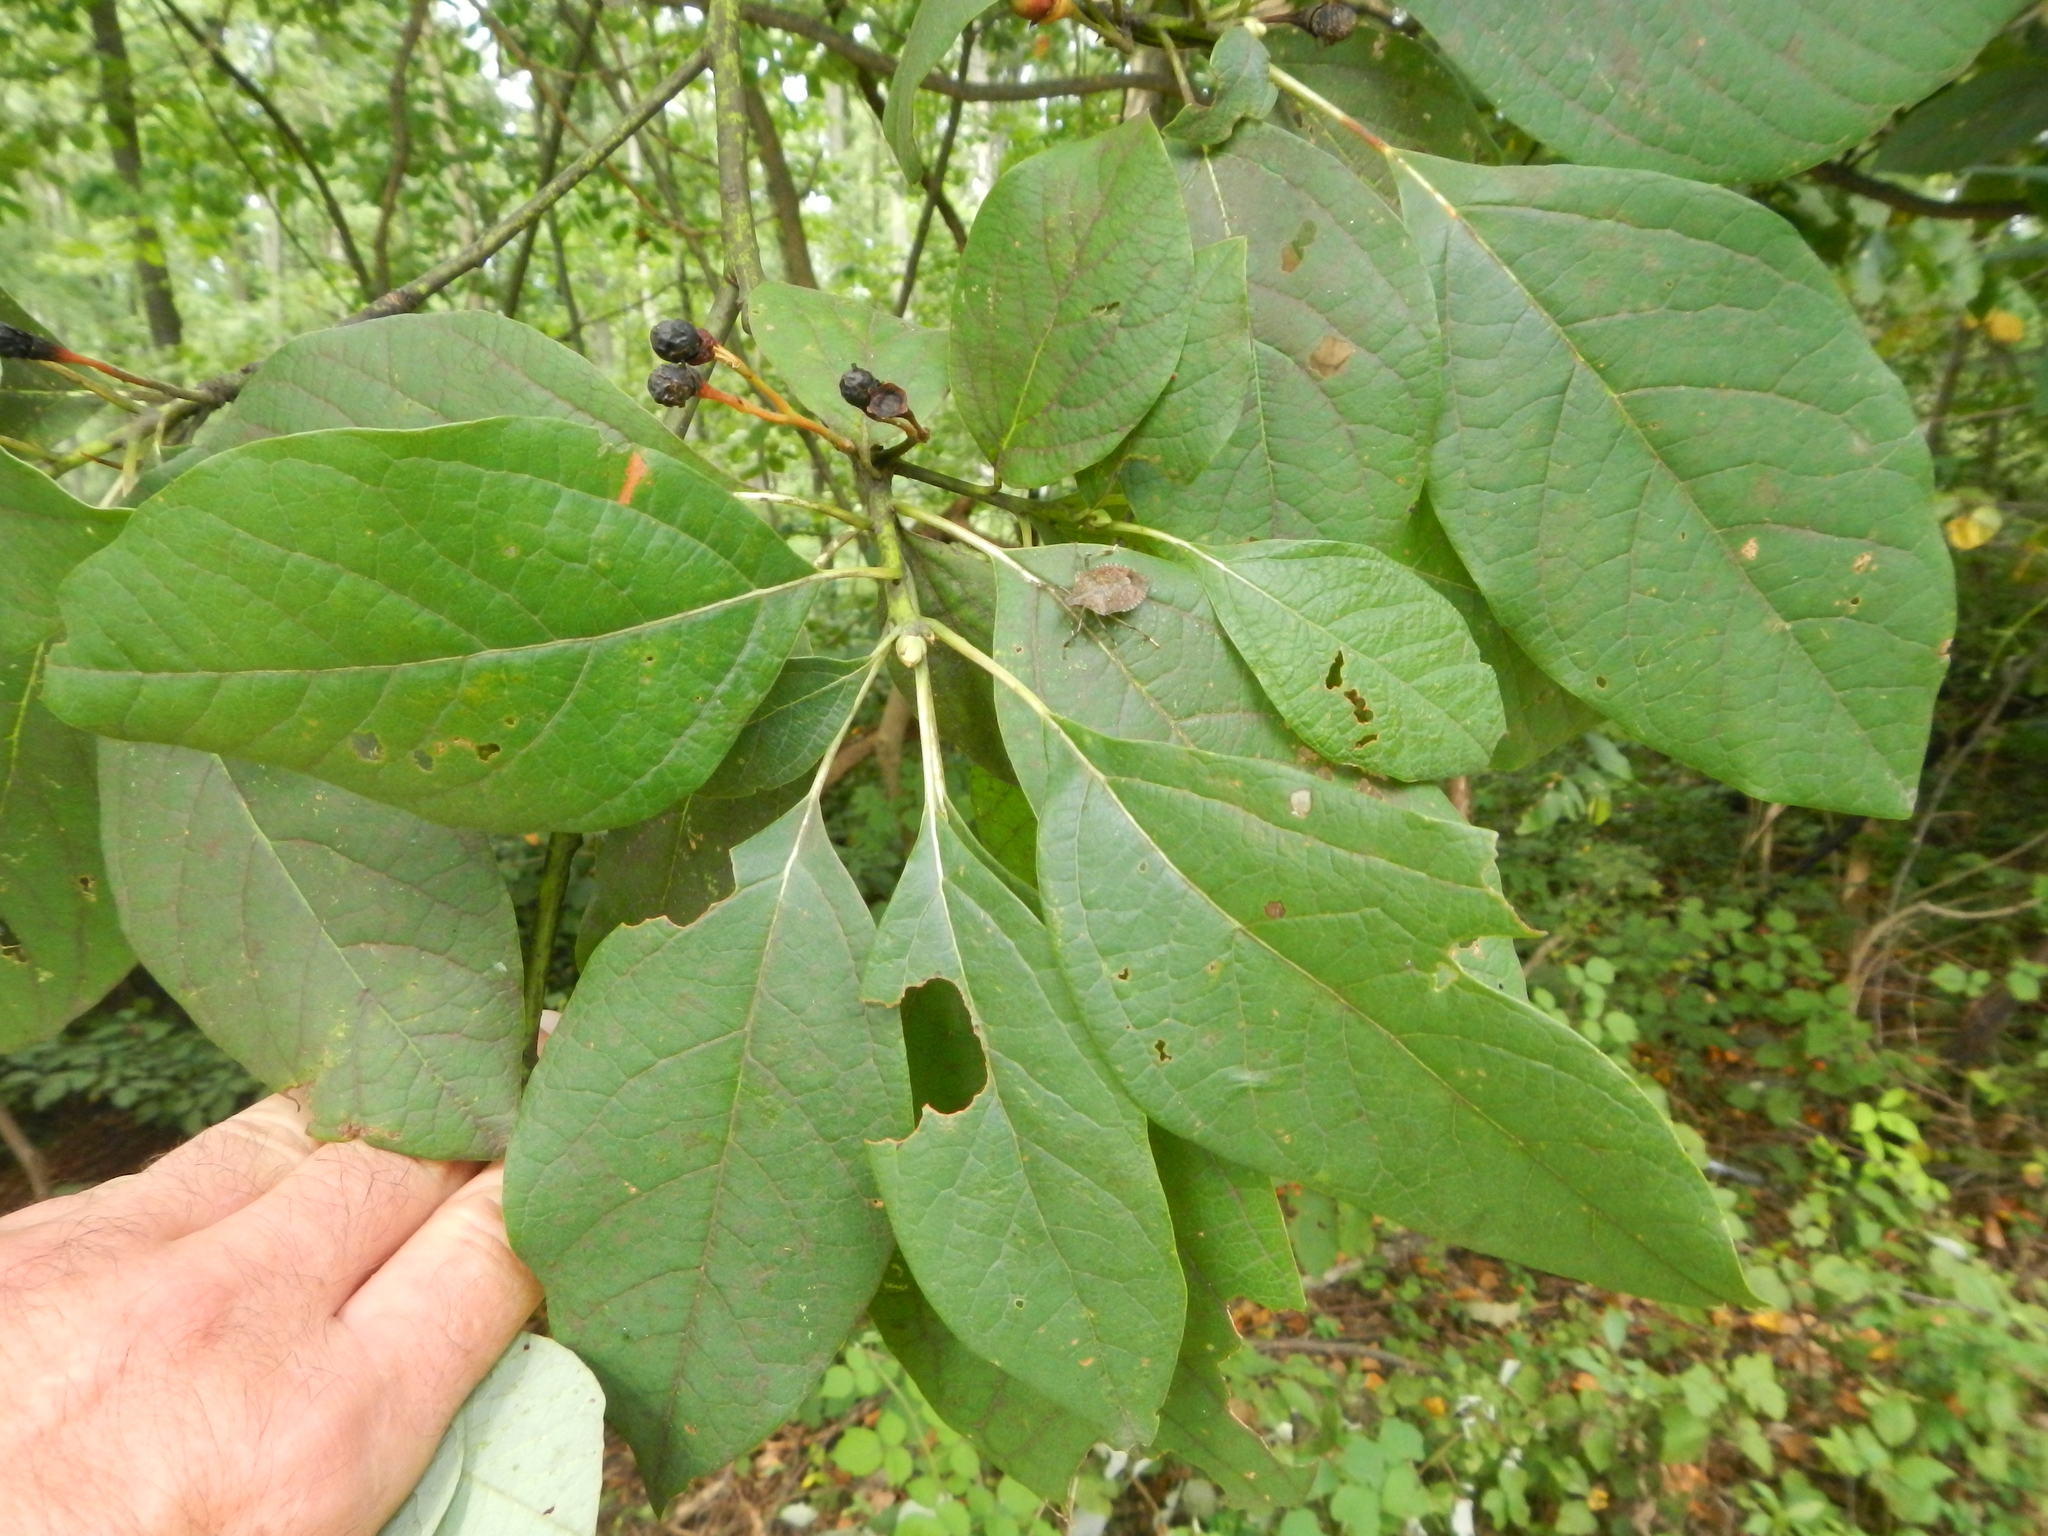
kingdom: Plantae
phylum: Tracheophyta
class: Magnoliopsida
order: Laurales
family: Lauraceae
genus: Sassafras
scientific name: Sassafras albidum
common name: Sassafras
